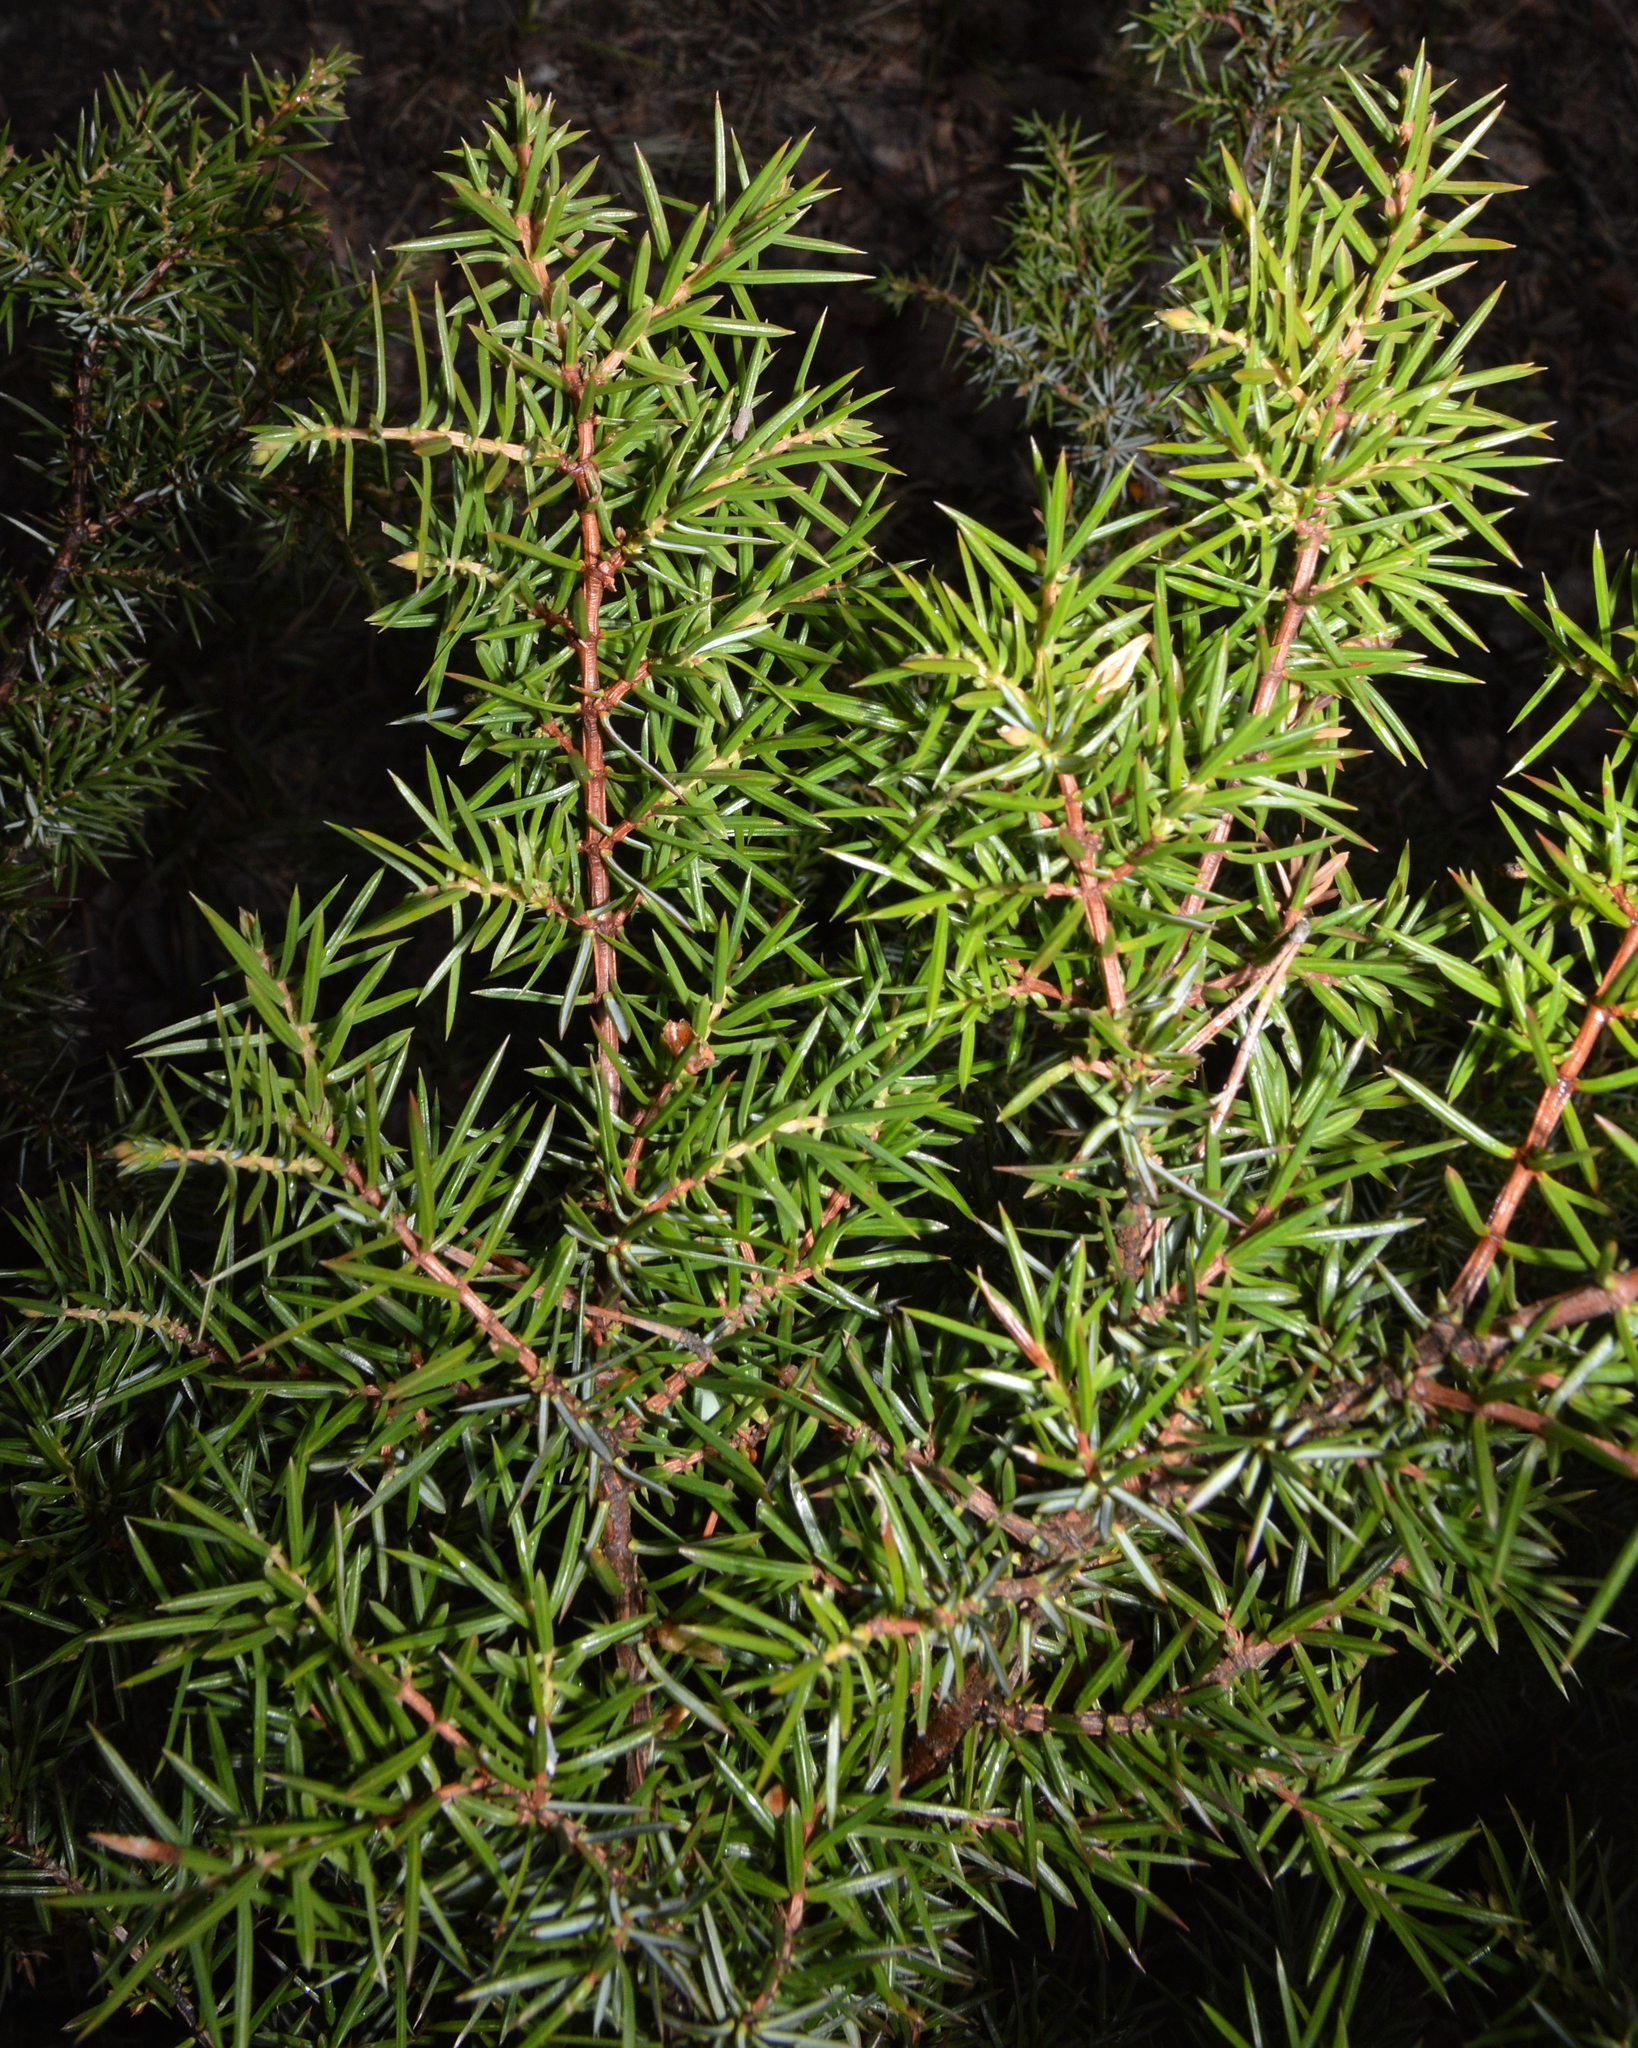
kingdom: Plantae
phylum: Tracheophyta
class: Pinopsida
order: Pinales
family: Cupressaceae
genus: Juniperus
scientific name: Juniperus communis
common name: Common juniper
